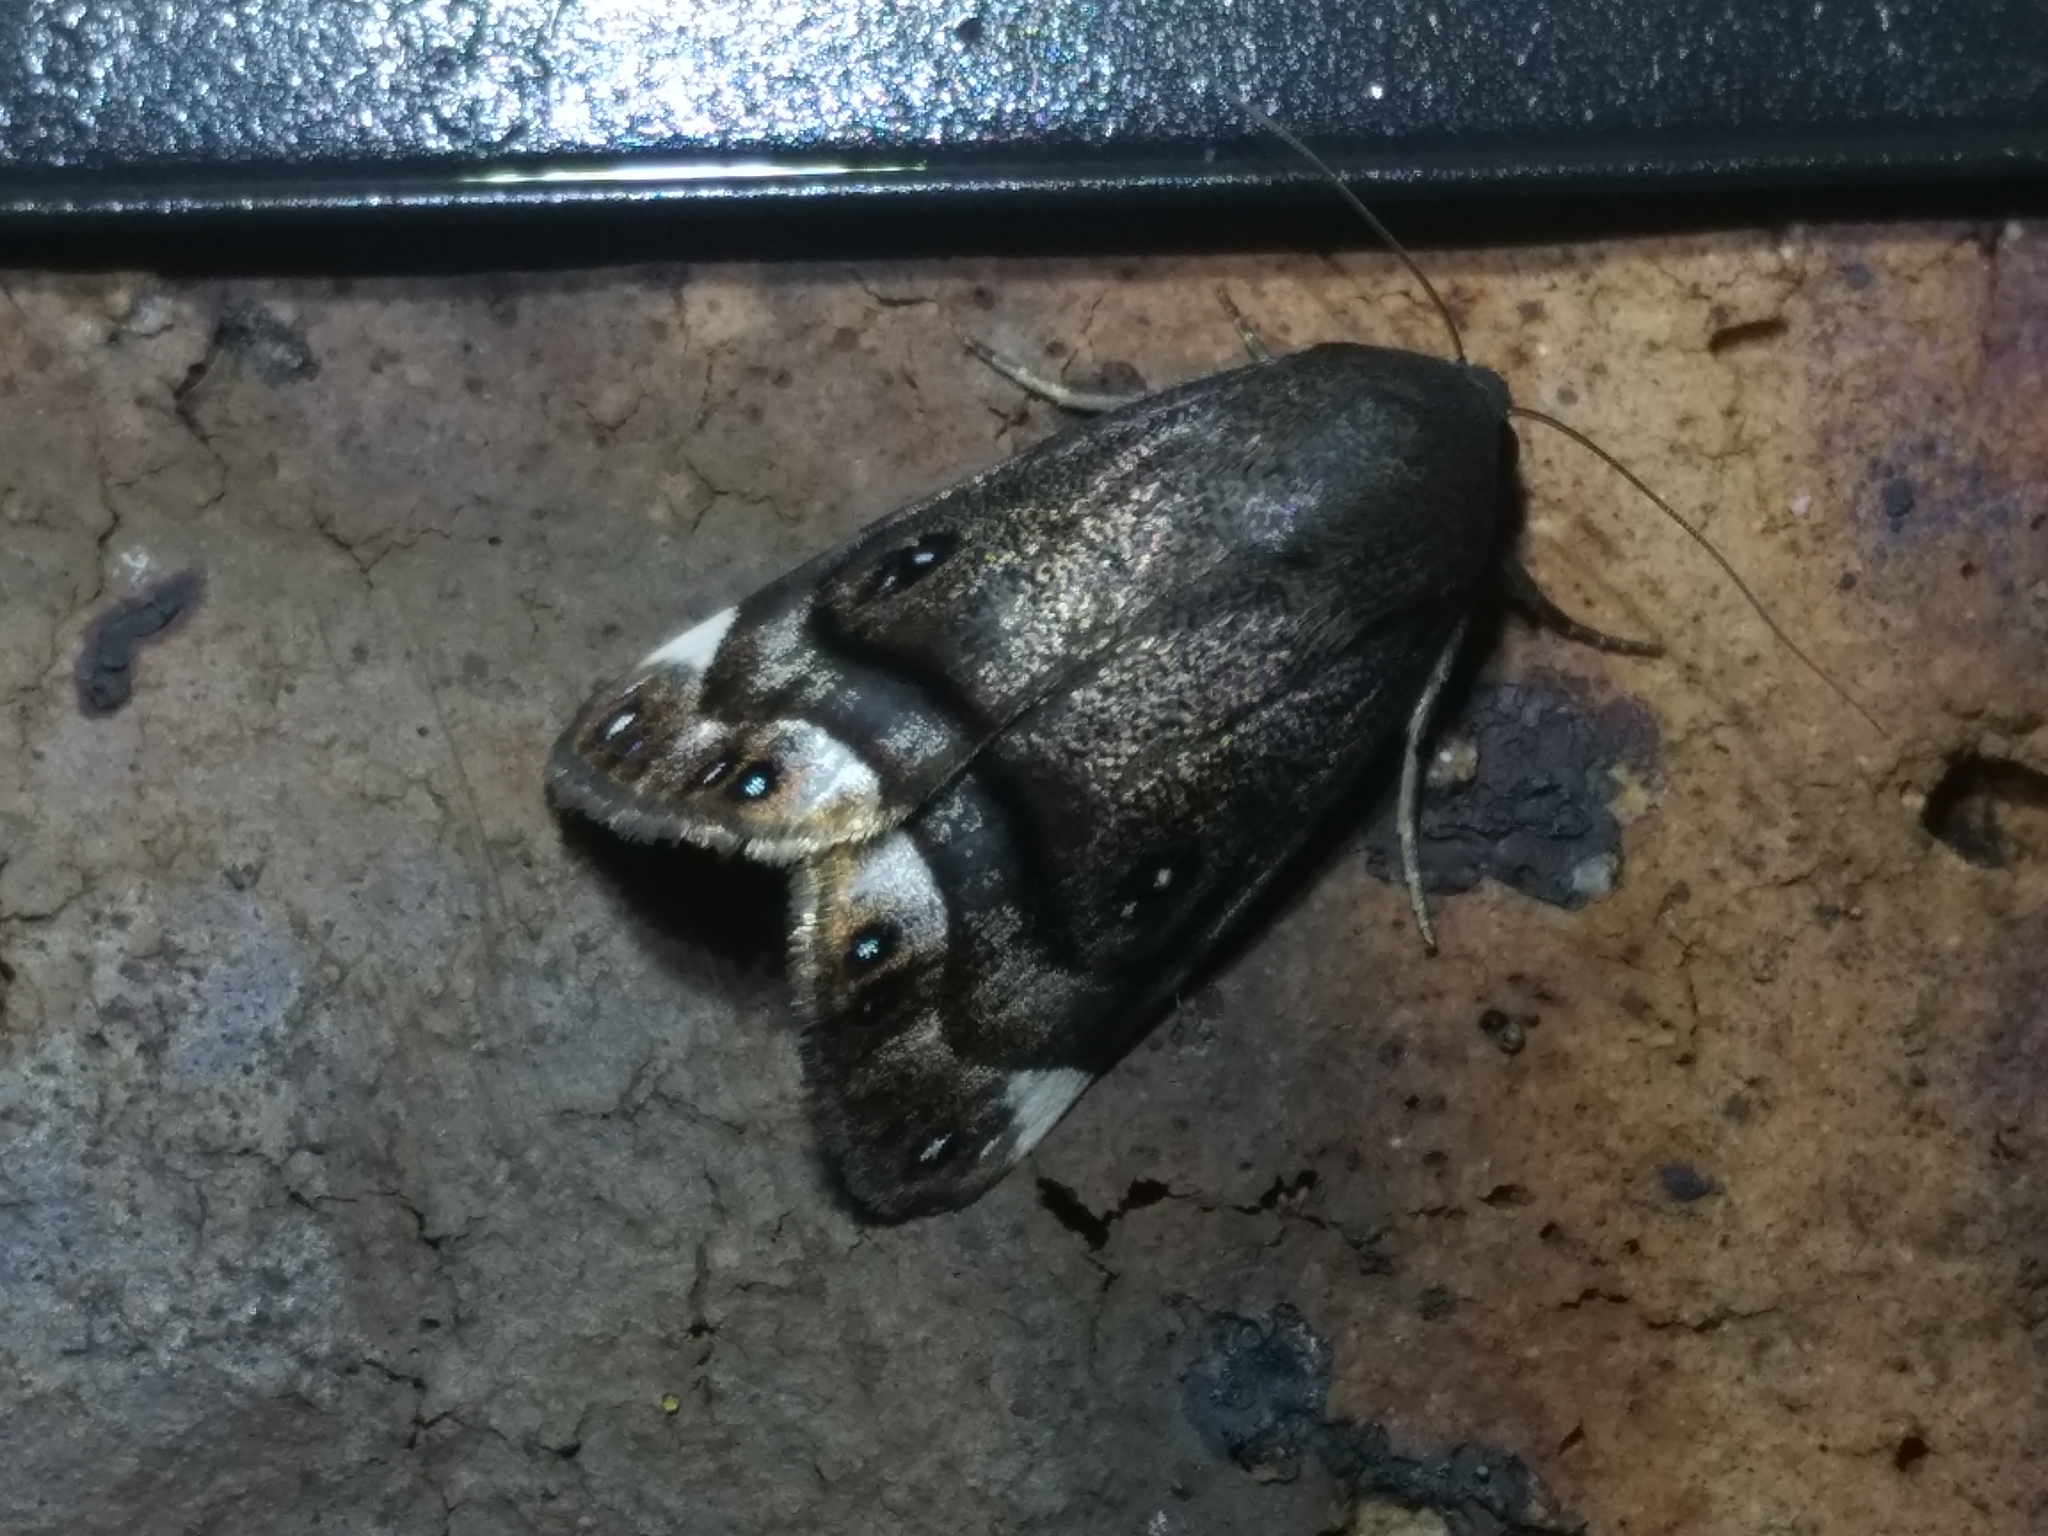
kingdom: Animalia
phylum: Arthropoda
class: Insecta
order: Lepidoptera
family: Nolidae
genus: Armactica
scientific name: Armactica columbina
